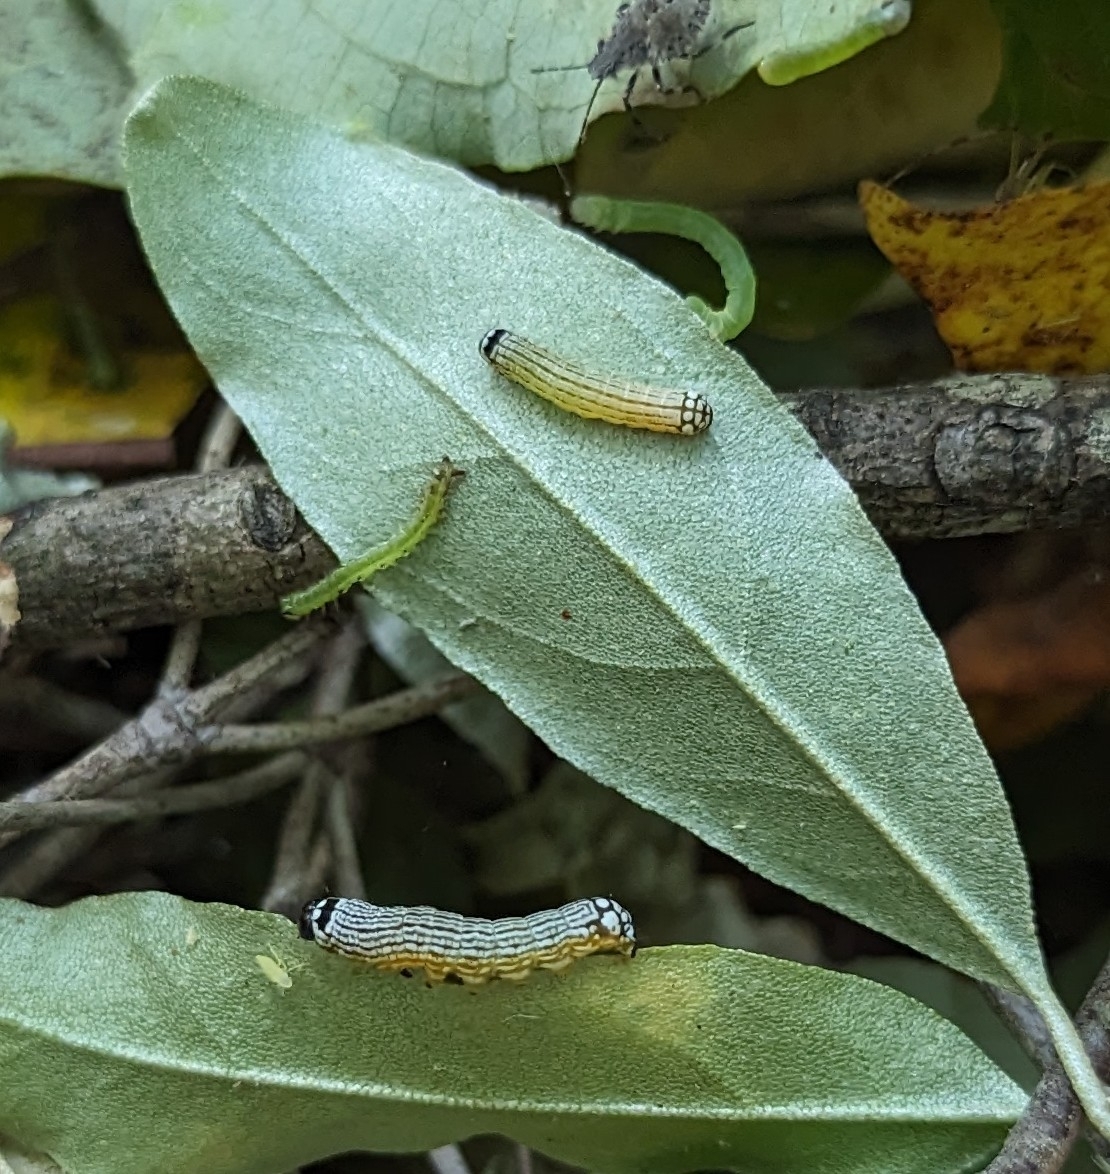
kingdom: Animalia
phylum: Arthropoda
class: Insecta
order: Lepidoptera
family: Noctuidae
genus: Phosphila
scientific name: Phosphila turbulenta
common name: Turbulent phosphila moth
